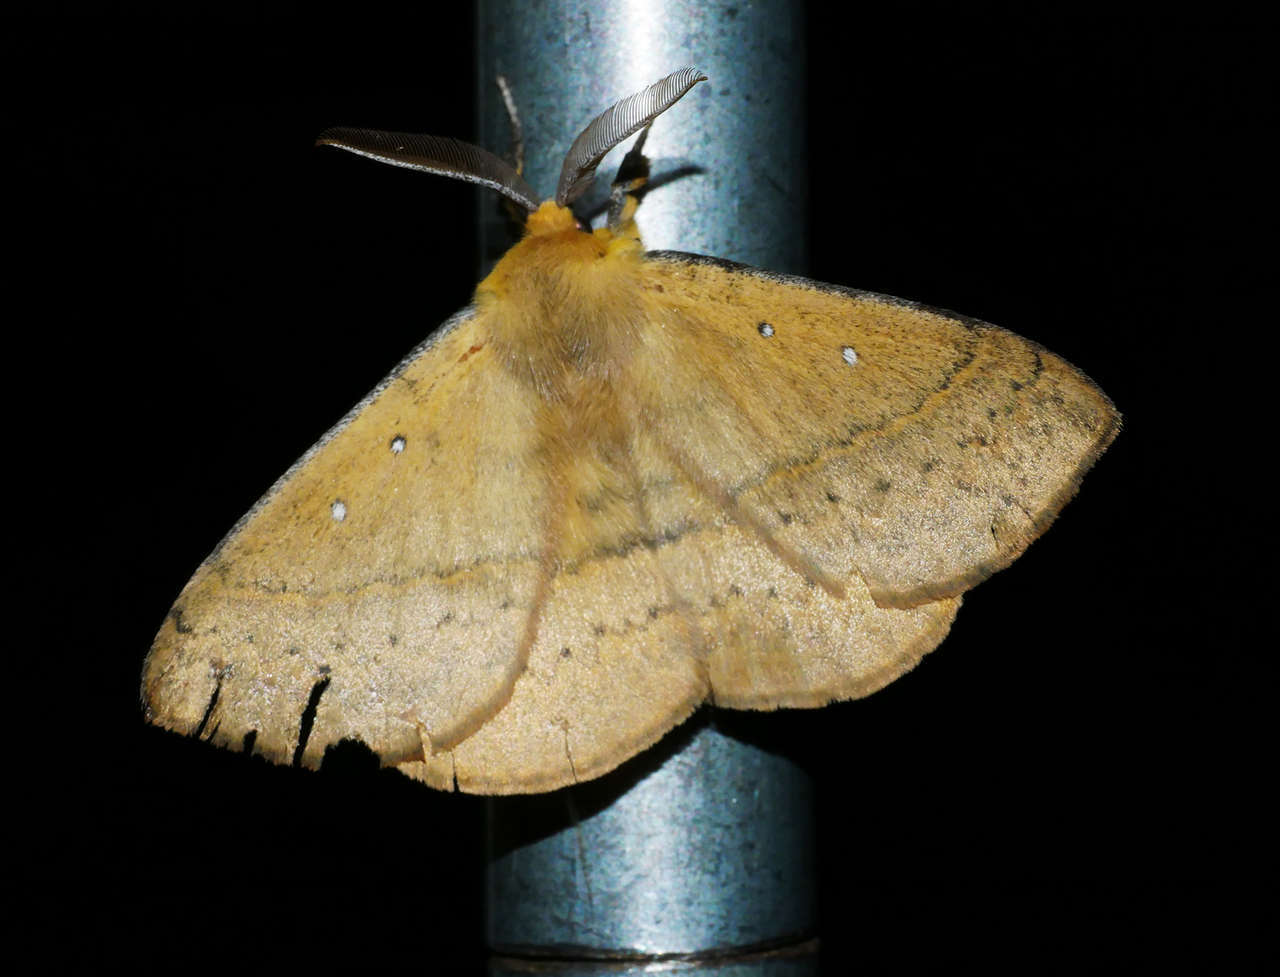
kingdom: Animalia
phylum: Arthropoda
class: Insecta
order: Lepidoptera
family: Anthelidae
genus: Anthela
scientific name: Anthela nicothoe
